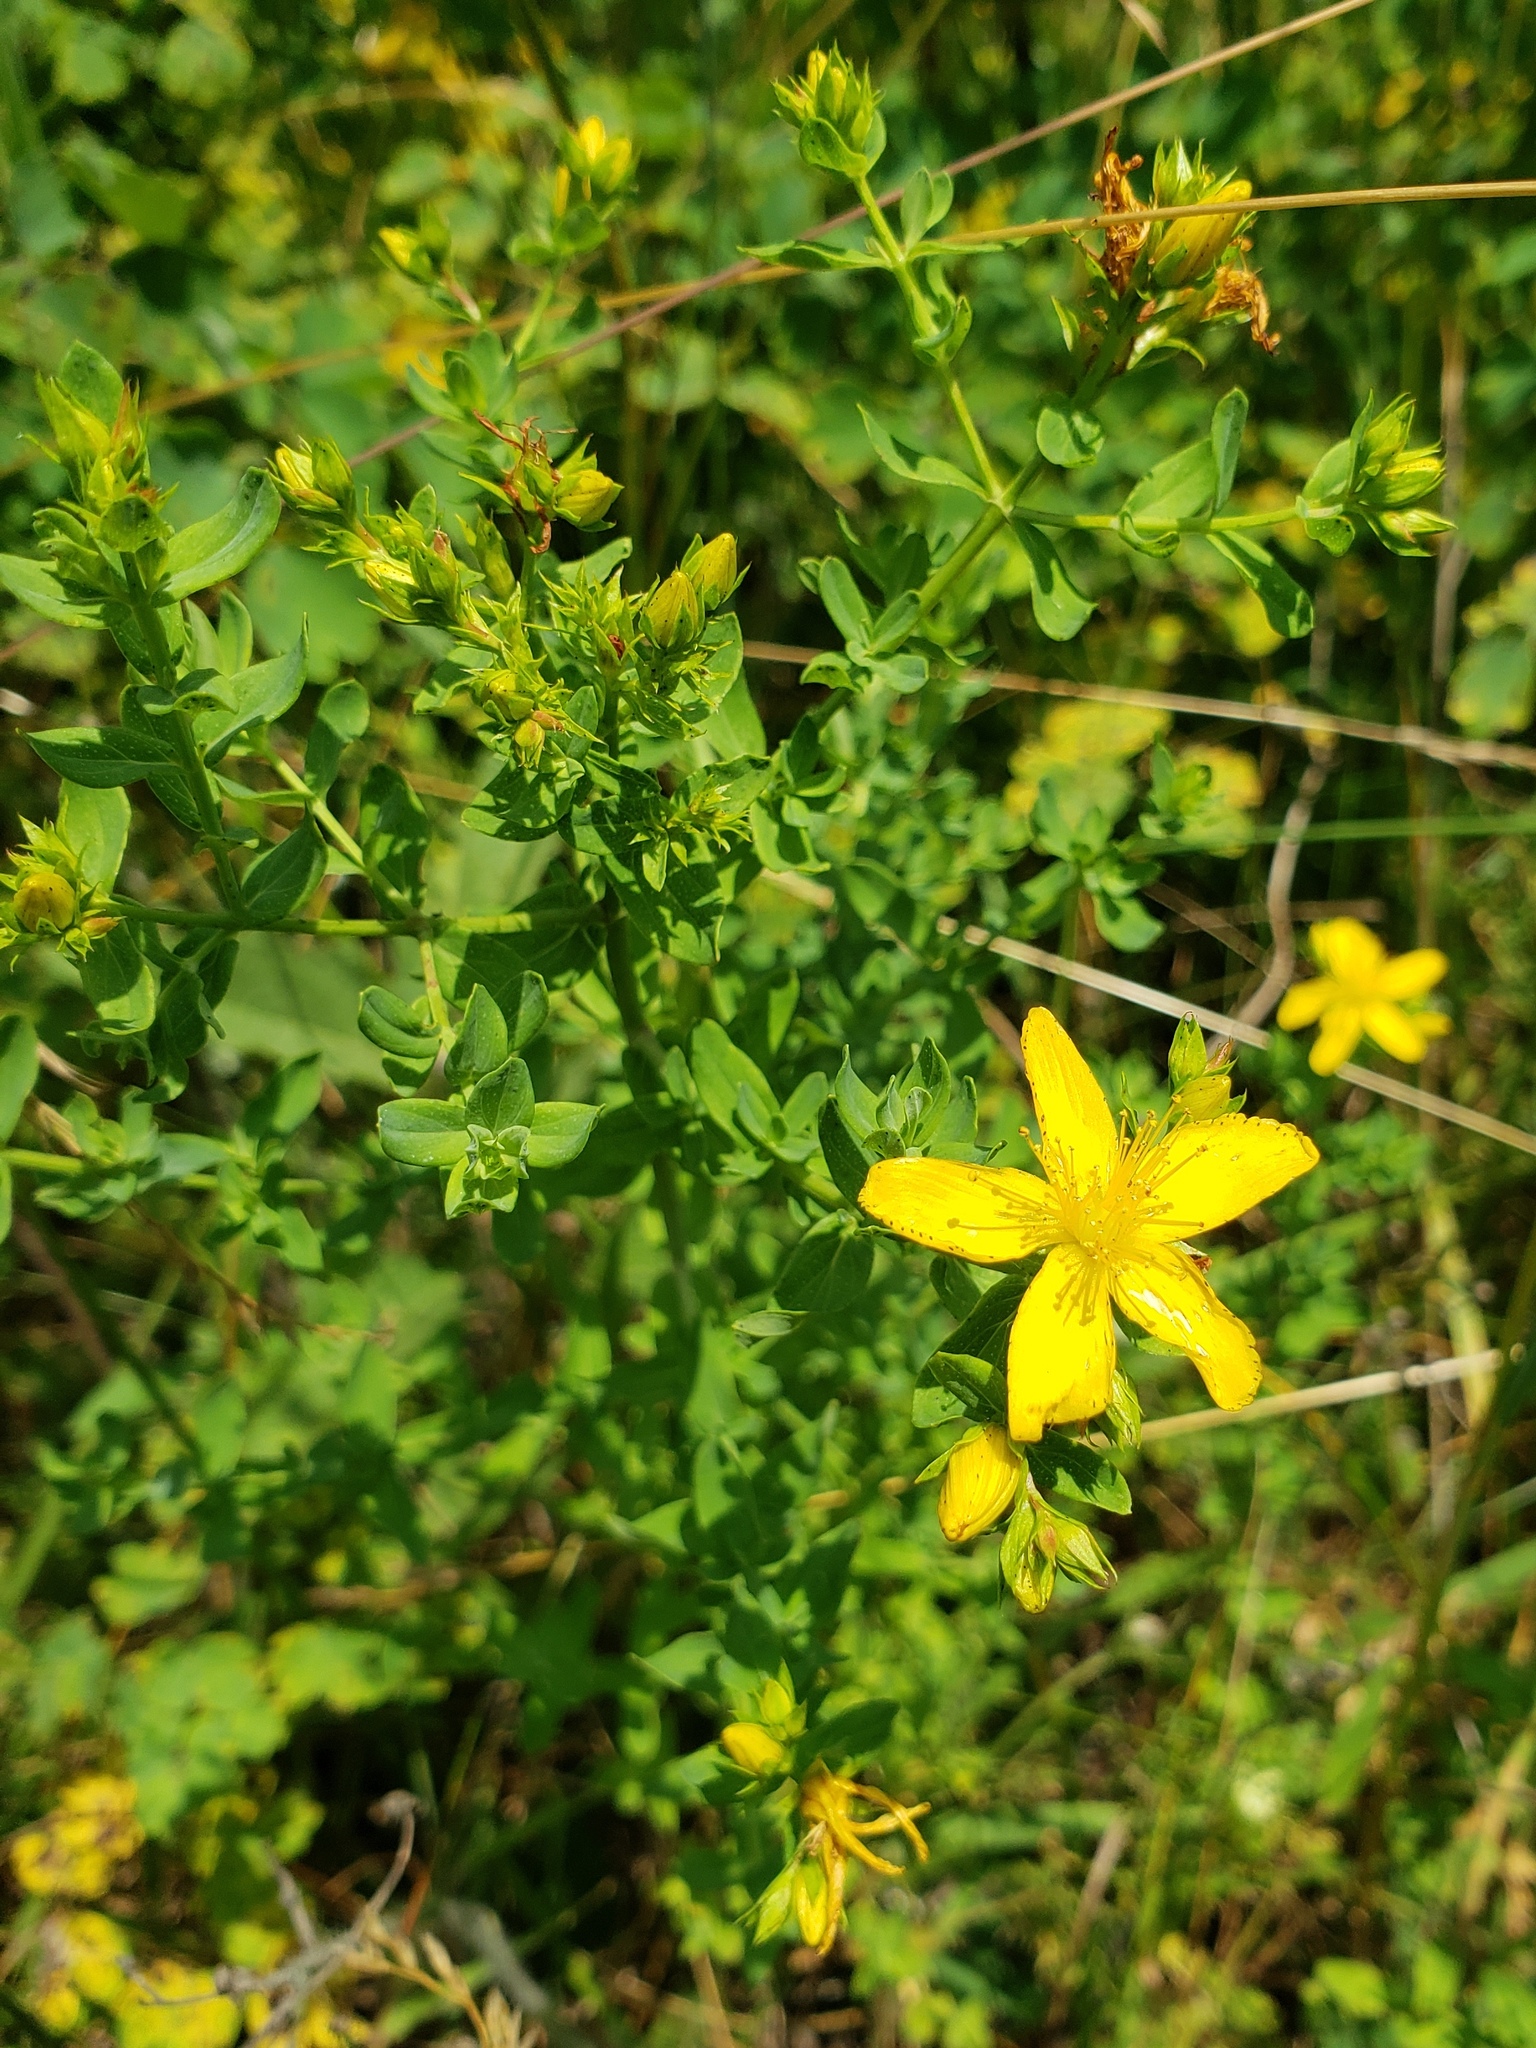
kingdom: Plantae
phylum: Tracheophyta
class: Magnoliopsida
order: Malpighiales
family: Hypericaceae
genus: Hypericum
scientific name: Hypericum perforatum
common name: Common st. johnswort
